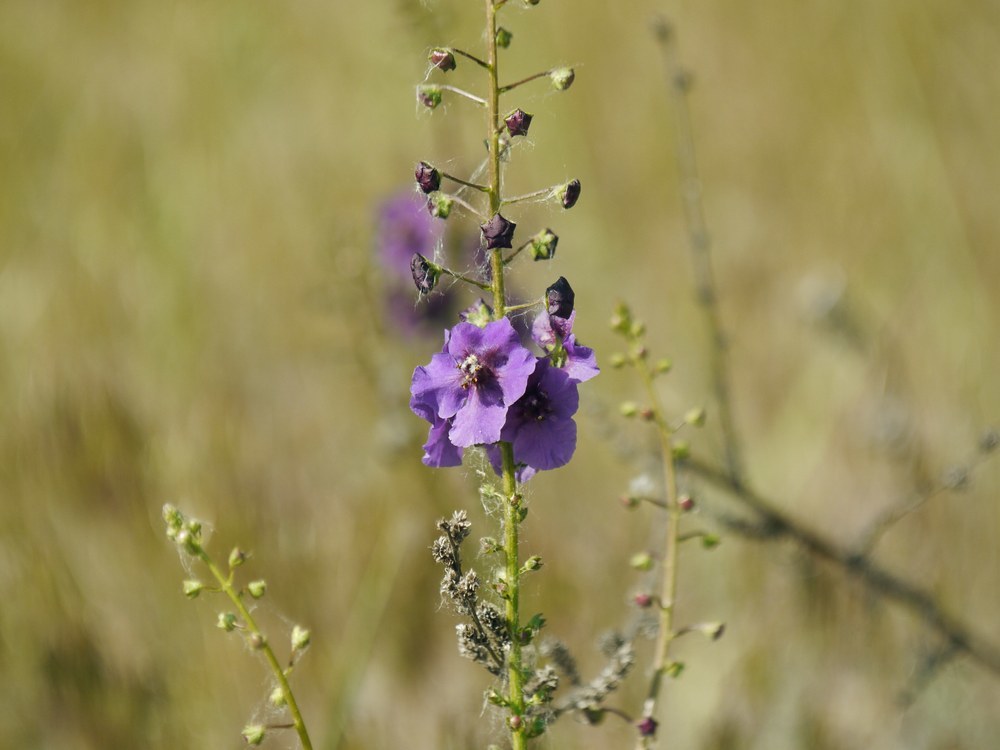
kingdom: Plantae
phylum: Tracheophyta
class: Magnoliopsida
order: Lamiales
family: Scrophulariaceae
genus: Verbascum
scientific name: Verbascum phoeniceum
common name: Purple mullein
